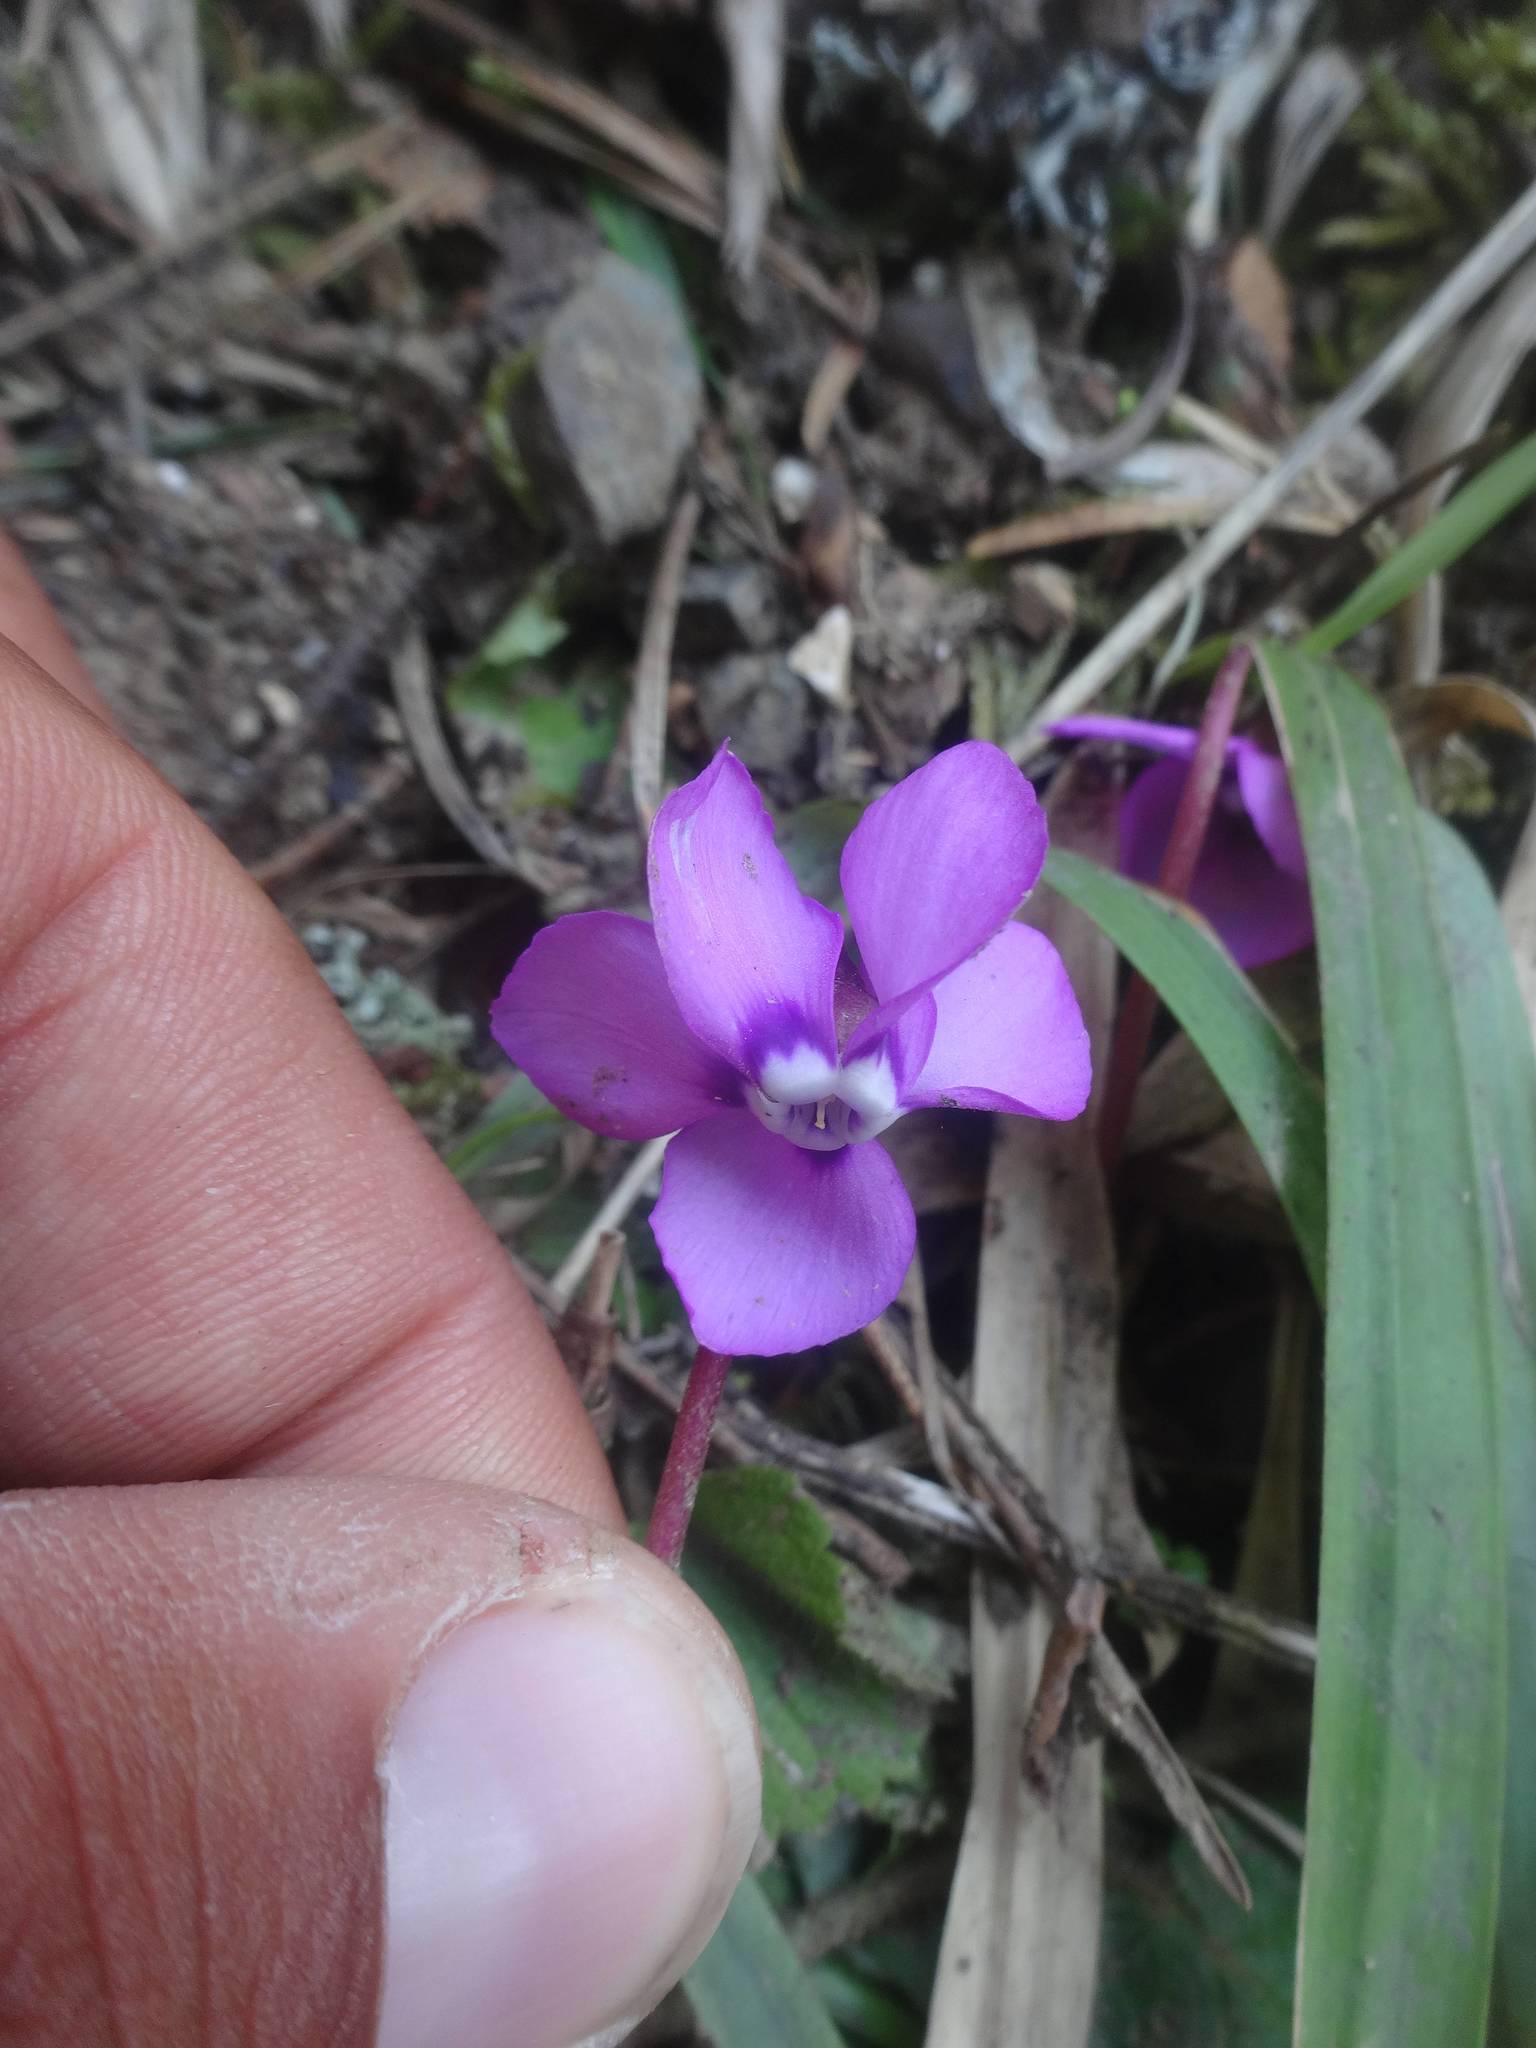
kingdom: Plantae
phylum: Tracheophyta
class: Magnoliopsida
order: Ericales
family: Primulaceae
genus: Cyclamen
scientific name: Cyclamen coum
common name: Eastern sowbread
